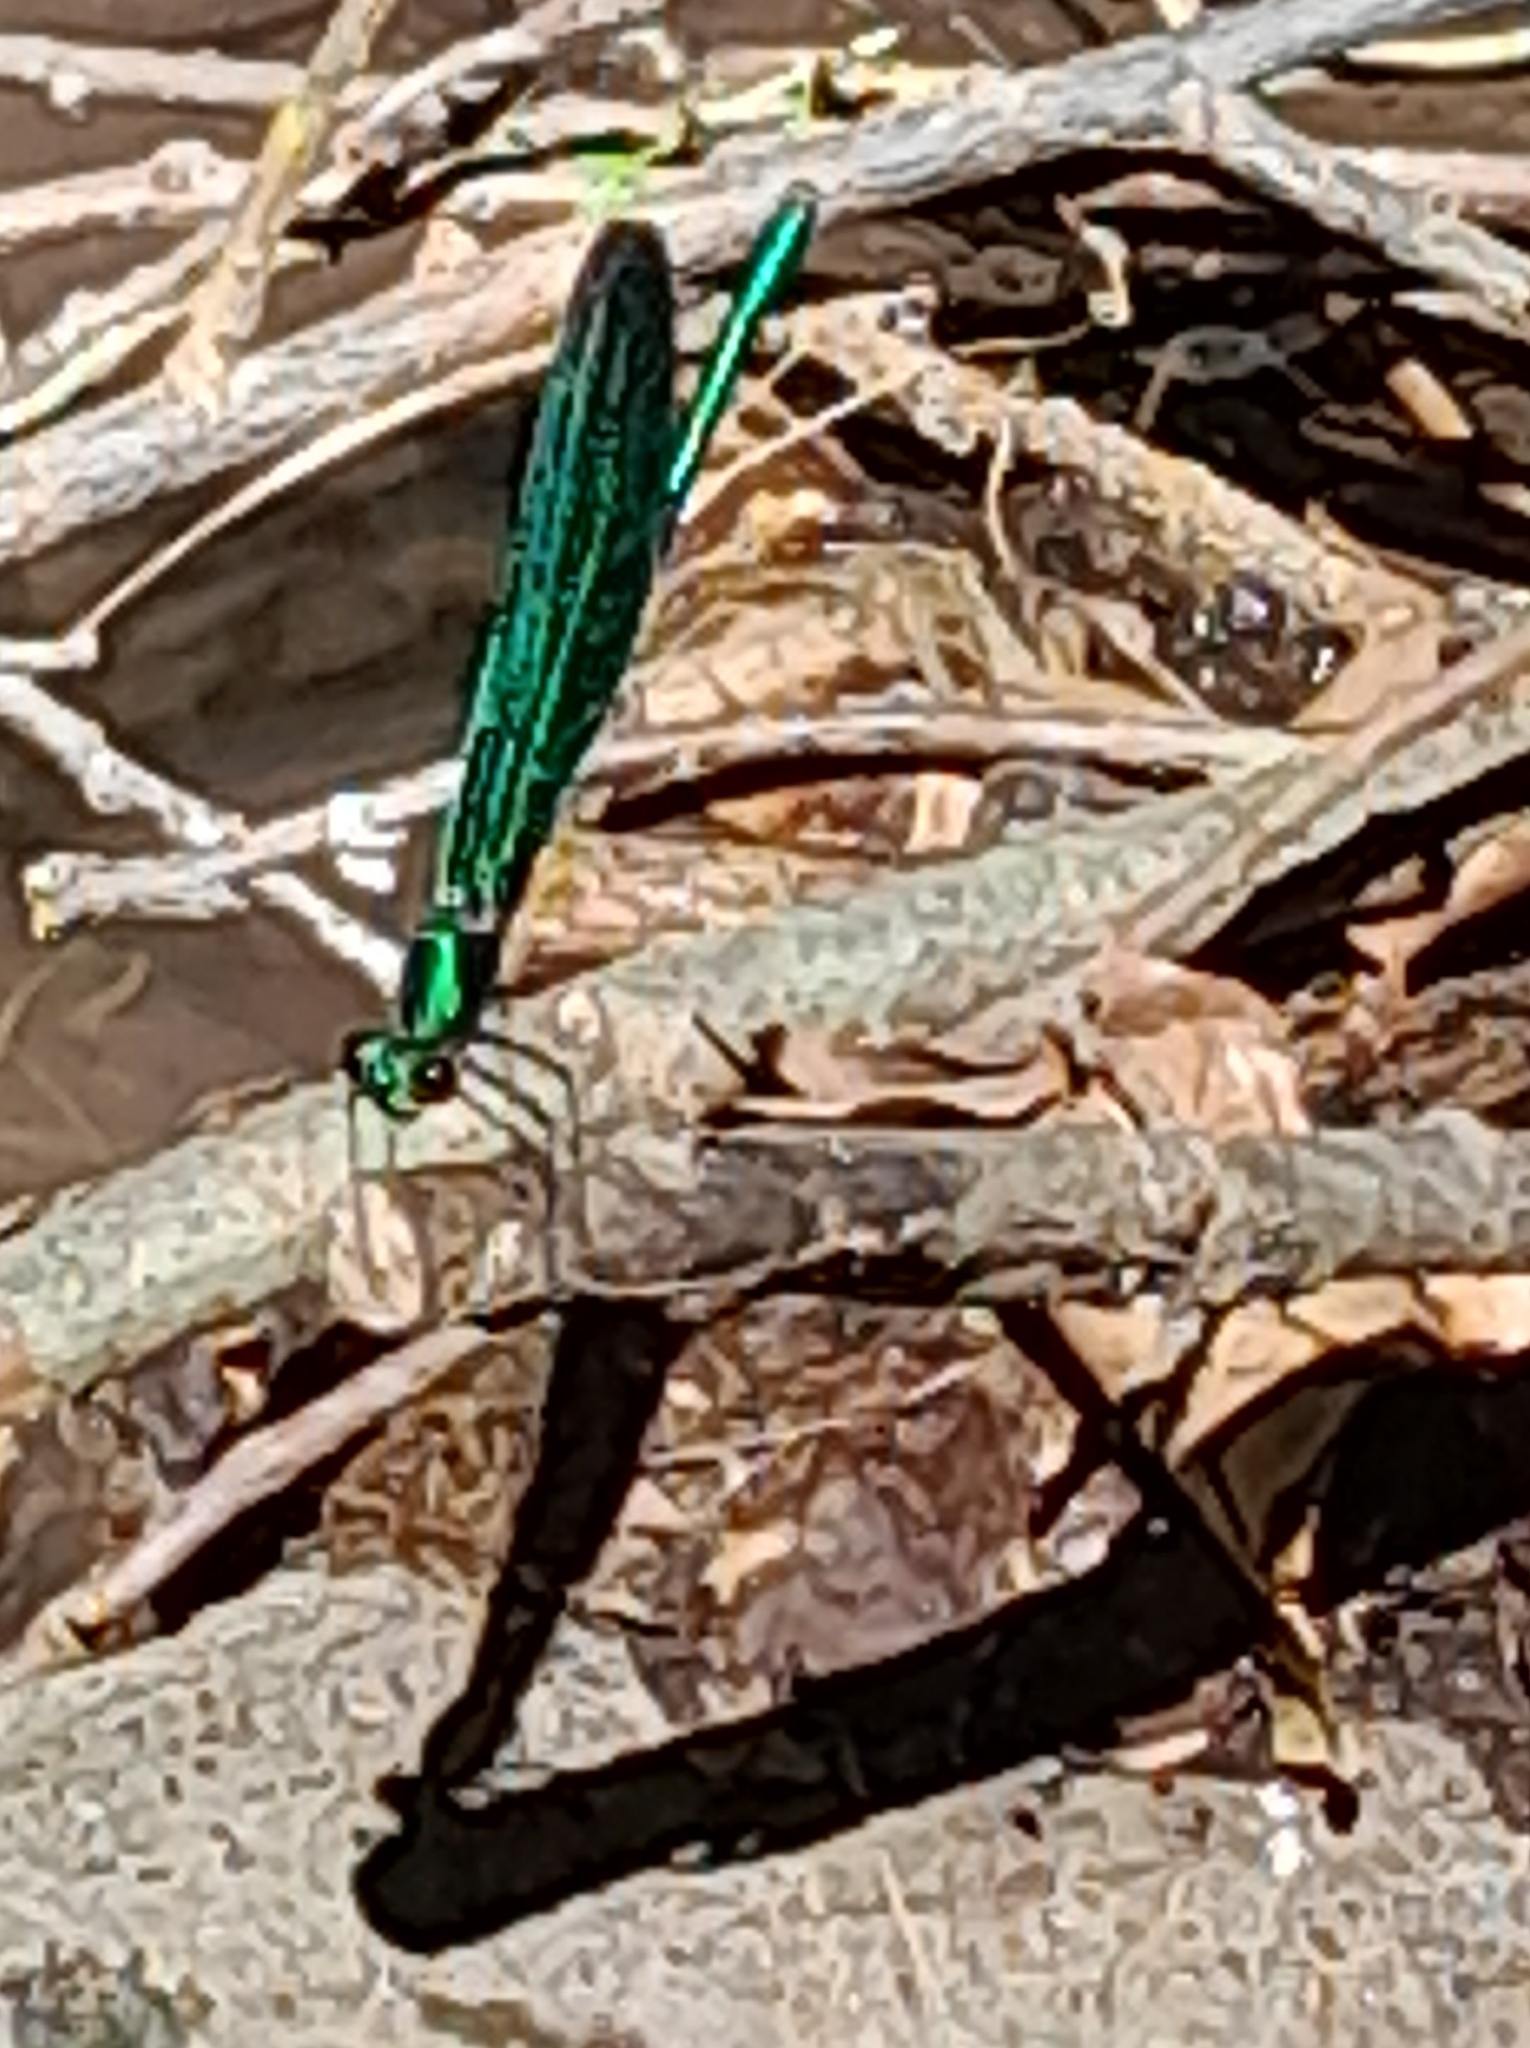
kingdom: Animalia
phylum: Arthropoda
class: Insecta
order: Odonata
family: Calopterygidae
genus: Calopteryx
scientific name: Calopteryx virgo
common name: Beautiful demoiselle
